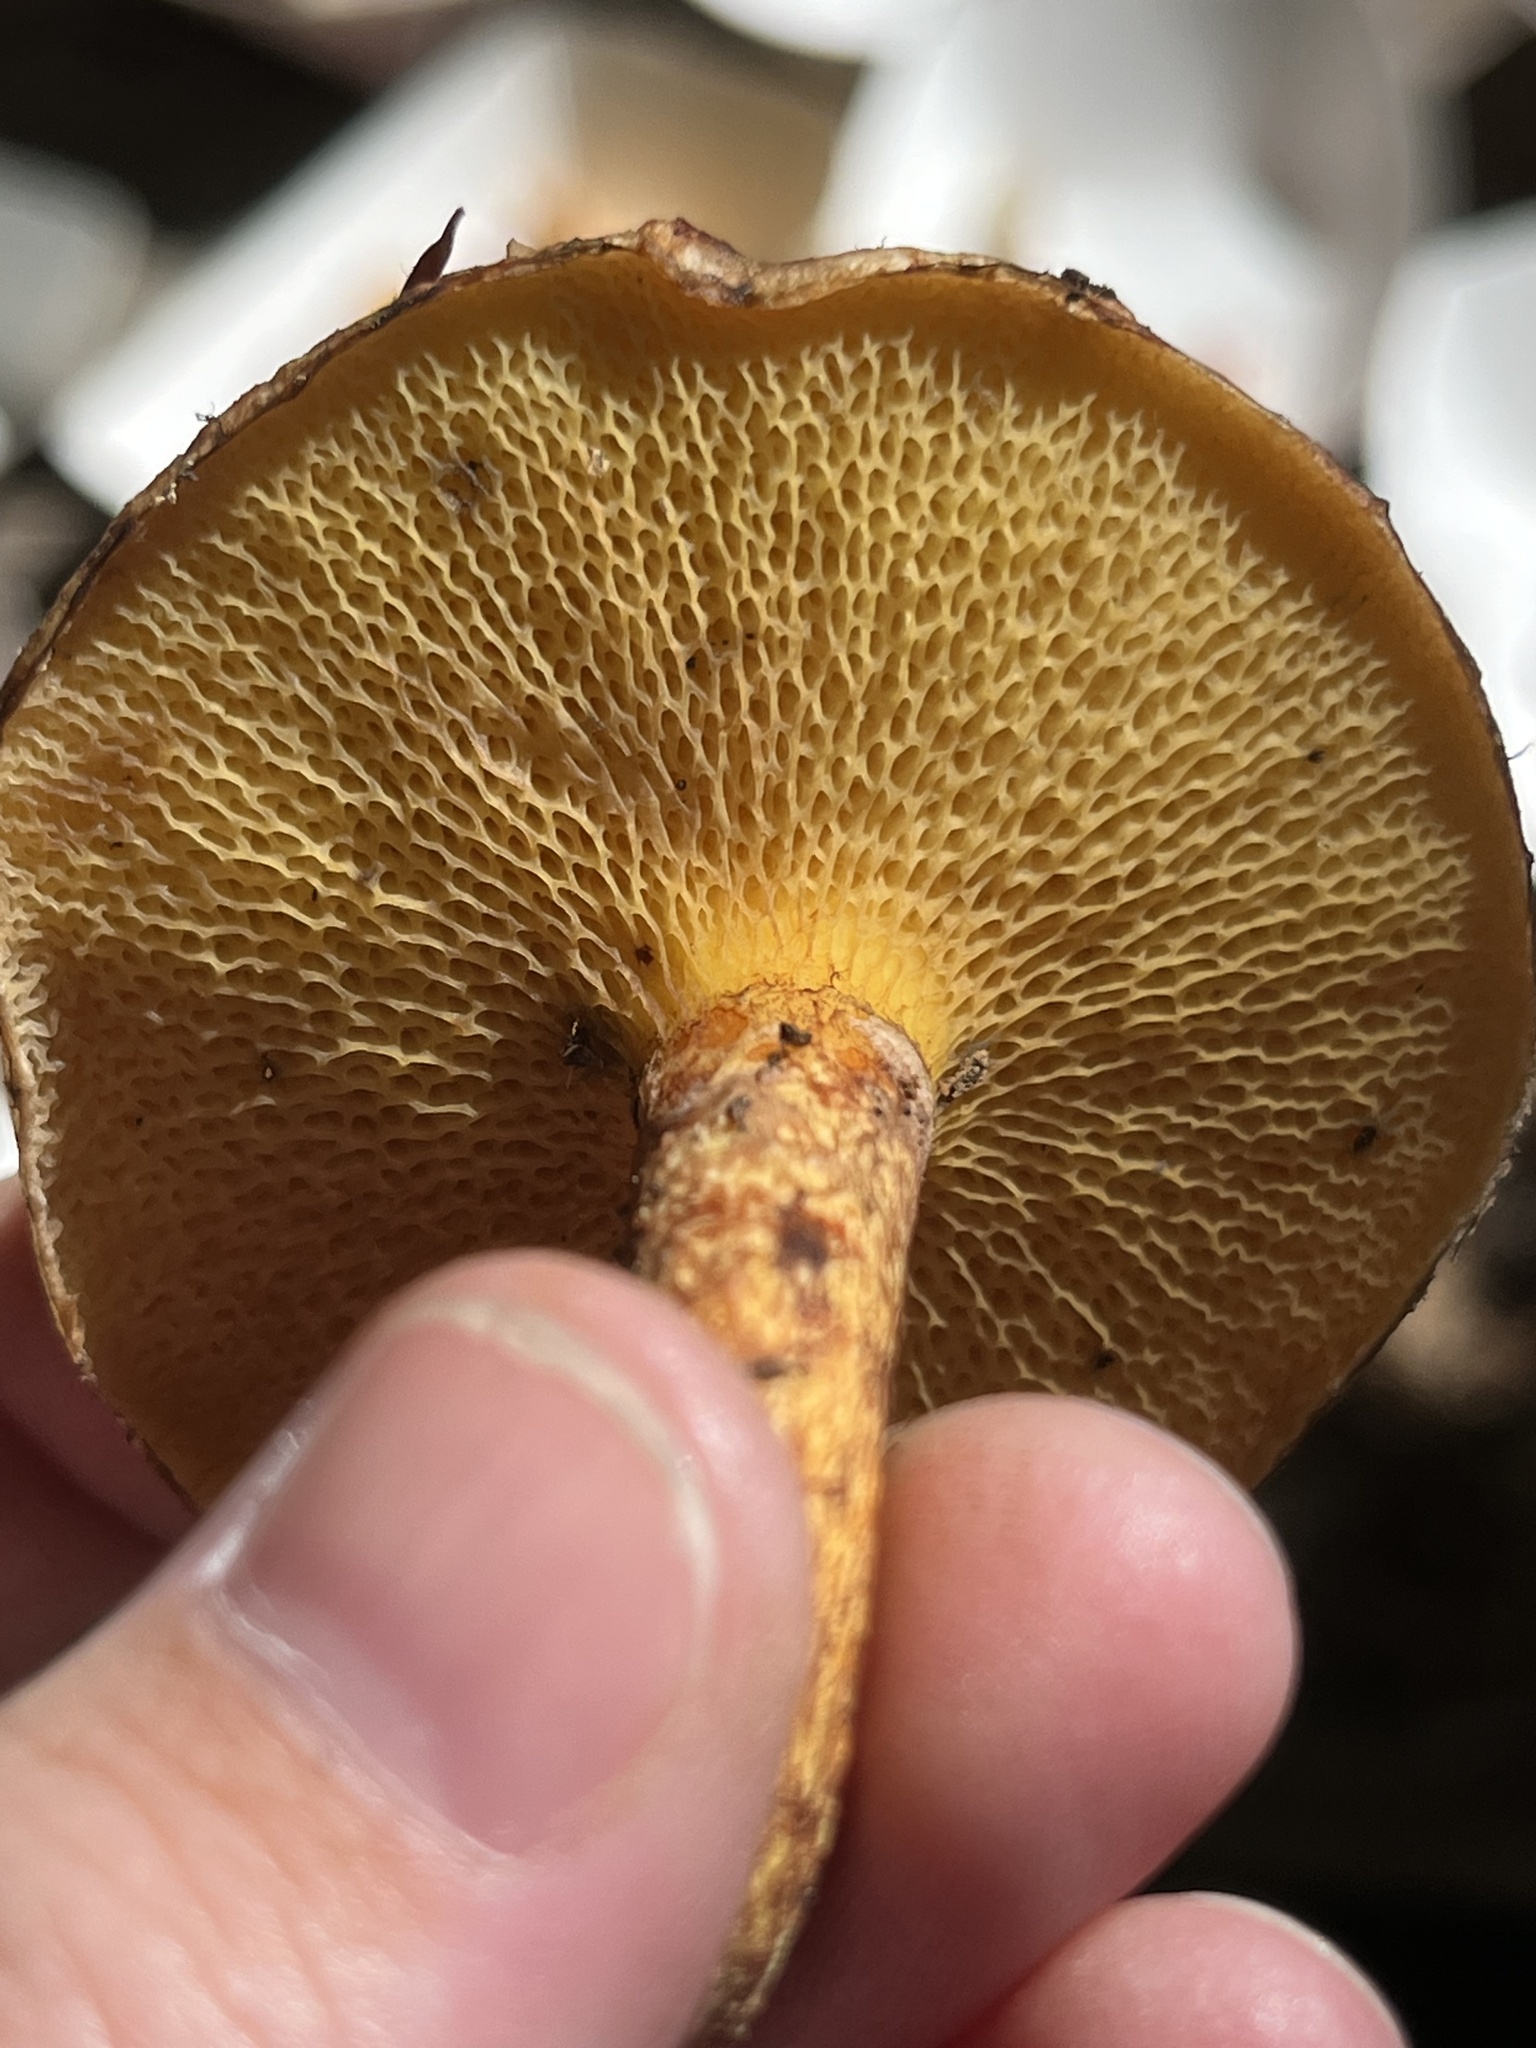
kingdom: Fungi
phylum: Basidiomycota
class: Agaricomycetes
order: Boletales
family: Suillaceae
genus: Suillus
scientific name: Suillus spraguei
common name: Painted suillus
